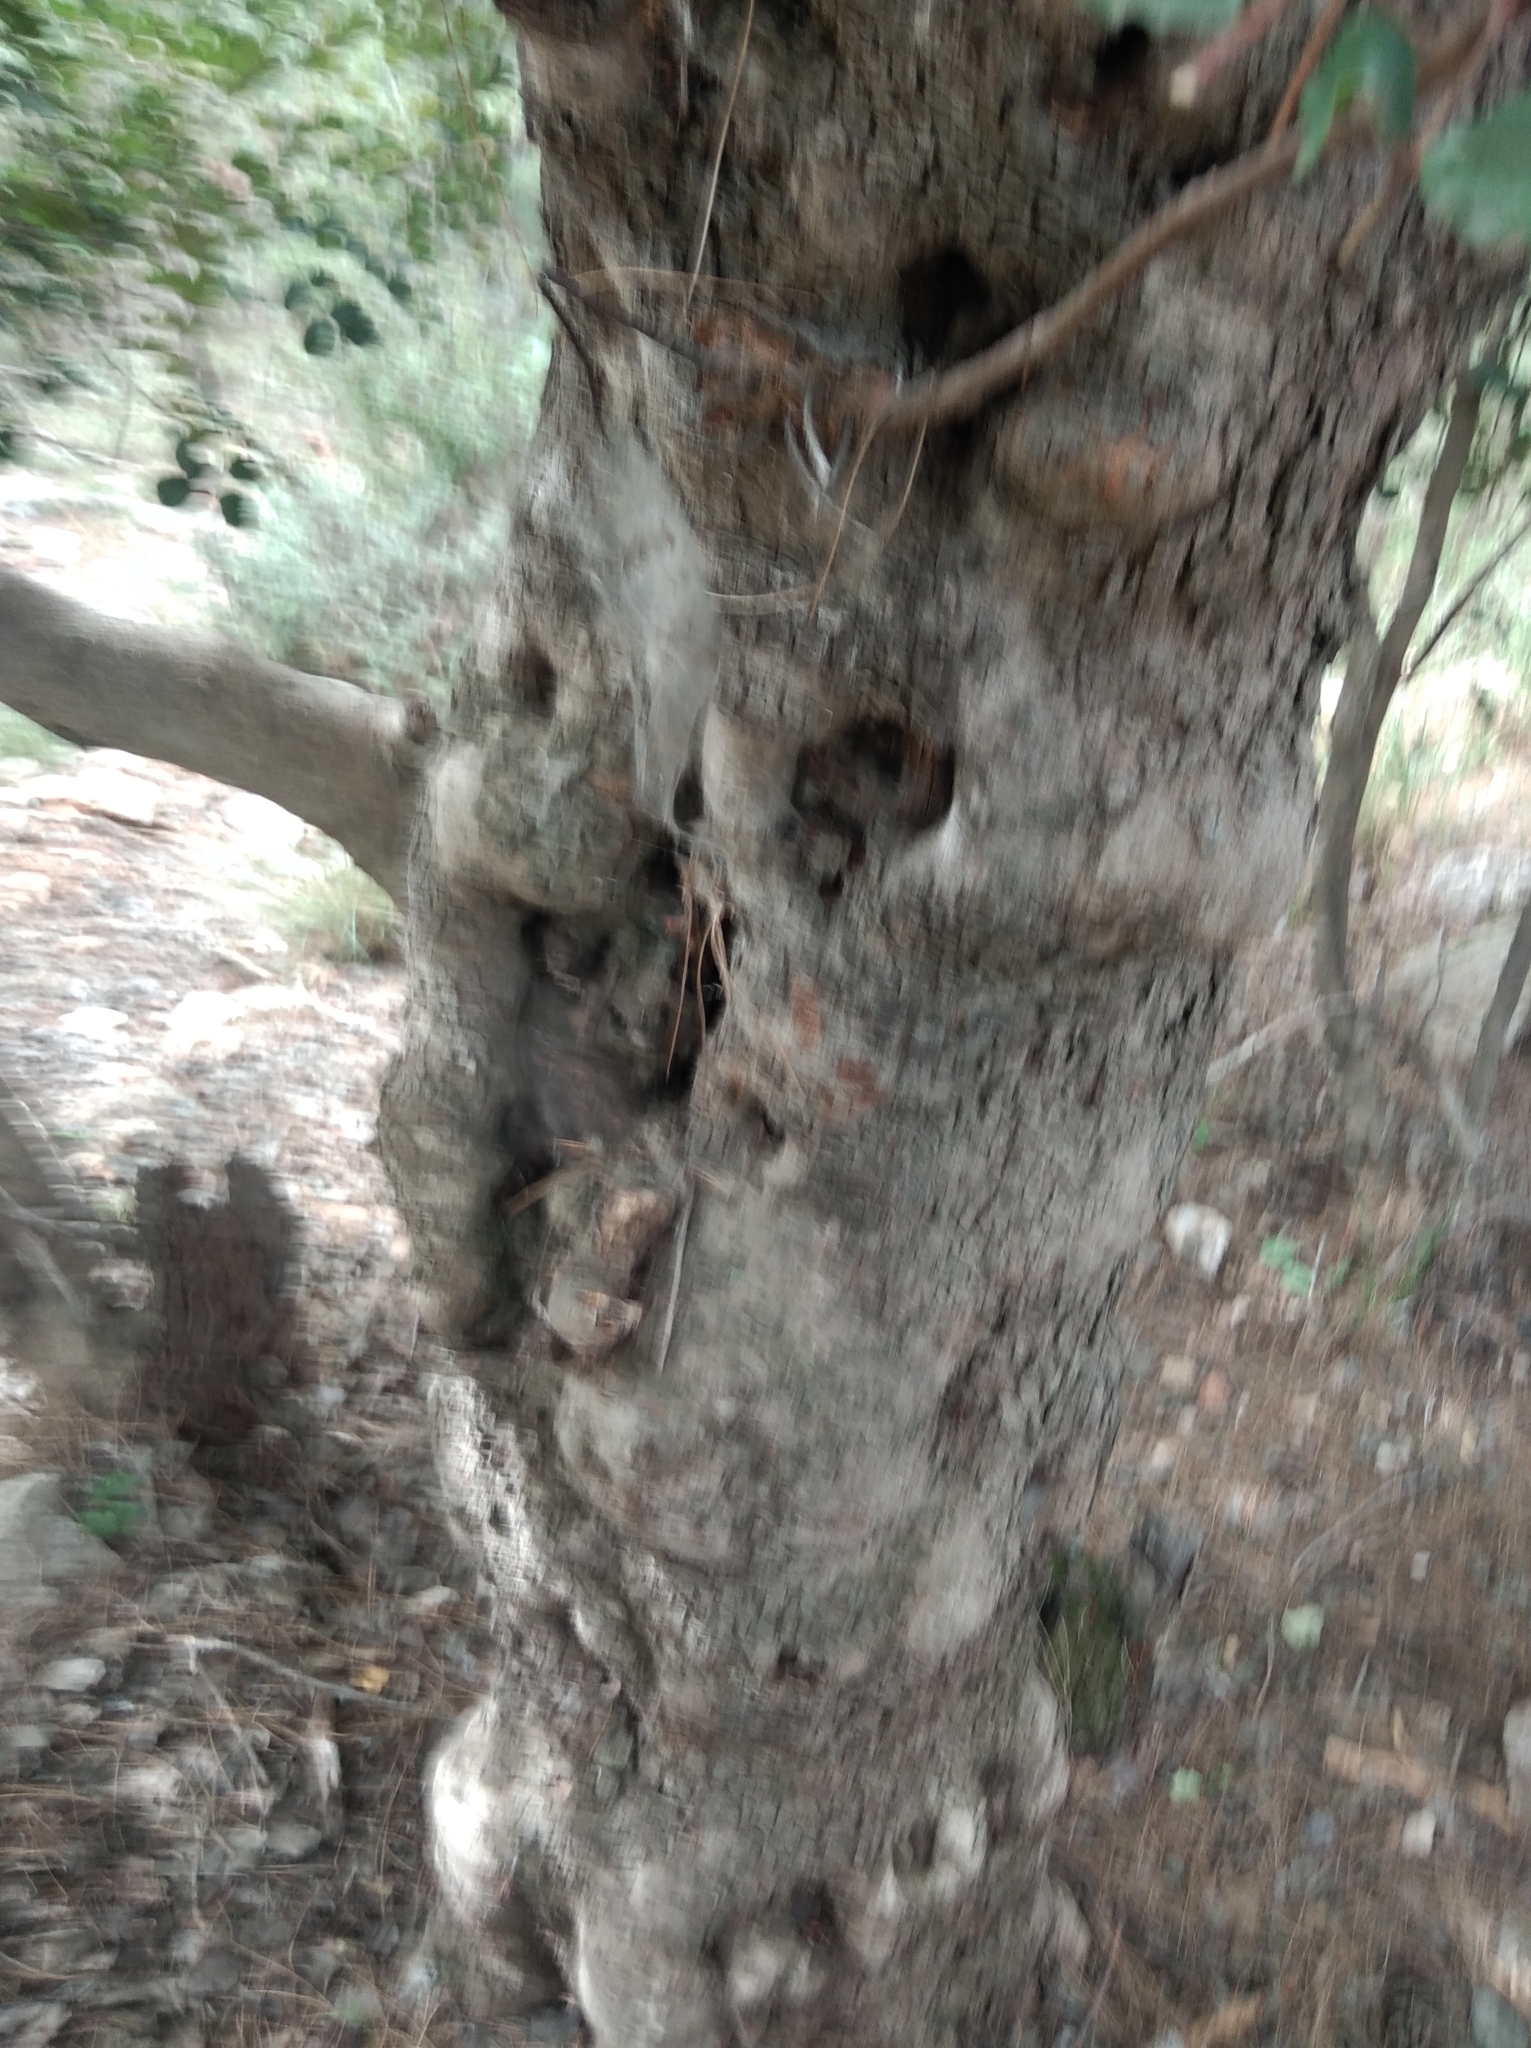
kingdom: Plantae
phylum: Tracheophyta
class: Magnoliopsida
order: Fabales
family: Fabaceae
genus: Ceratonia
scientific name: Ceratonia siliqua
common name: Carob
